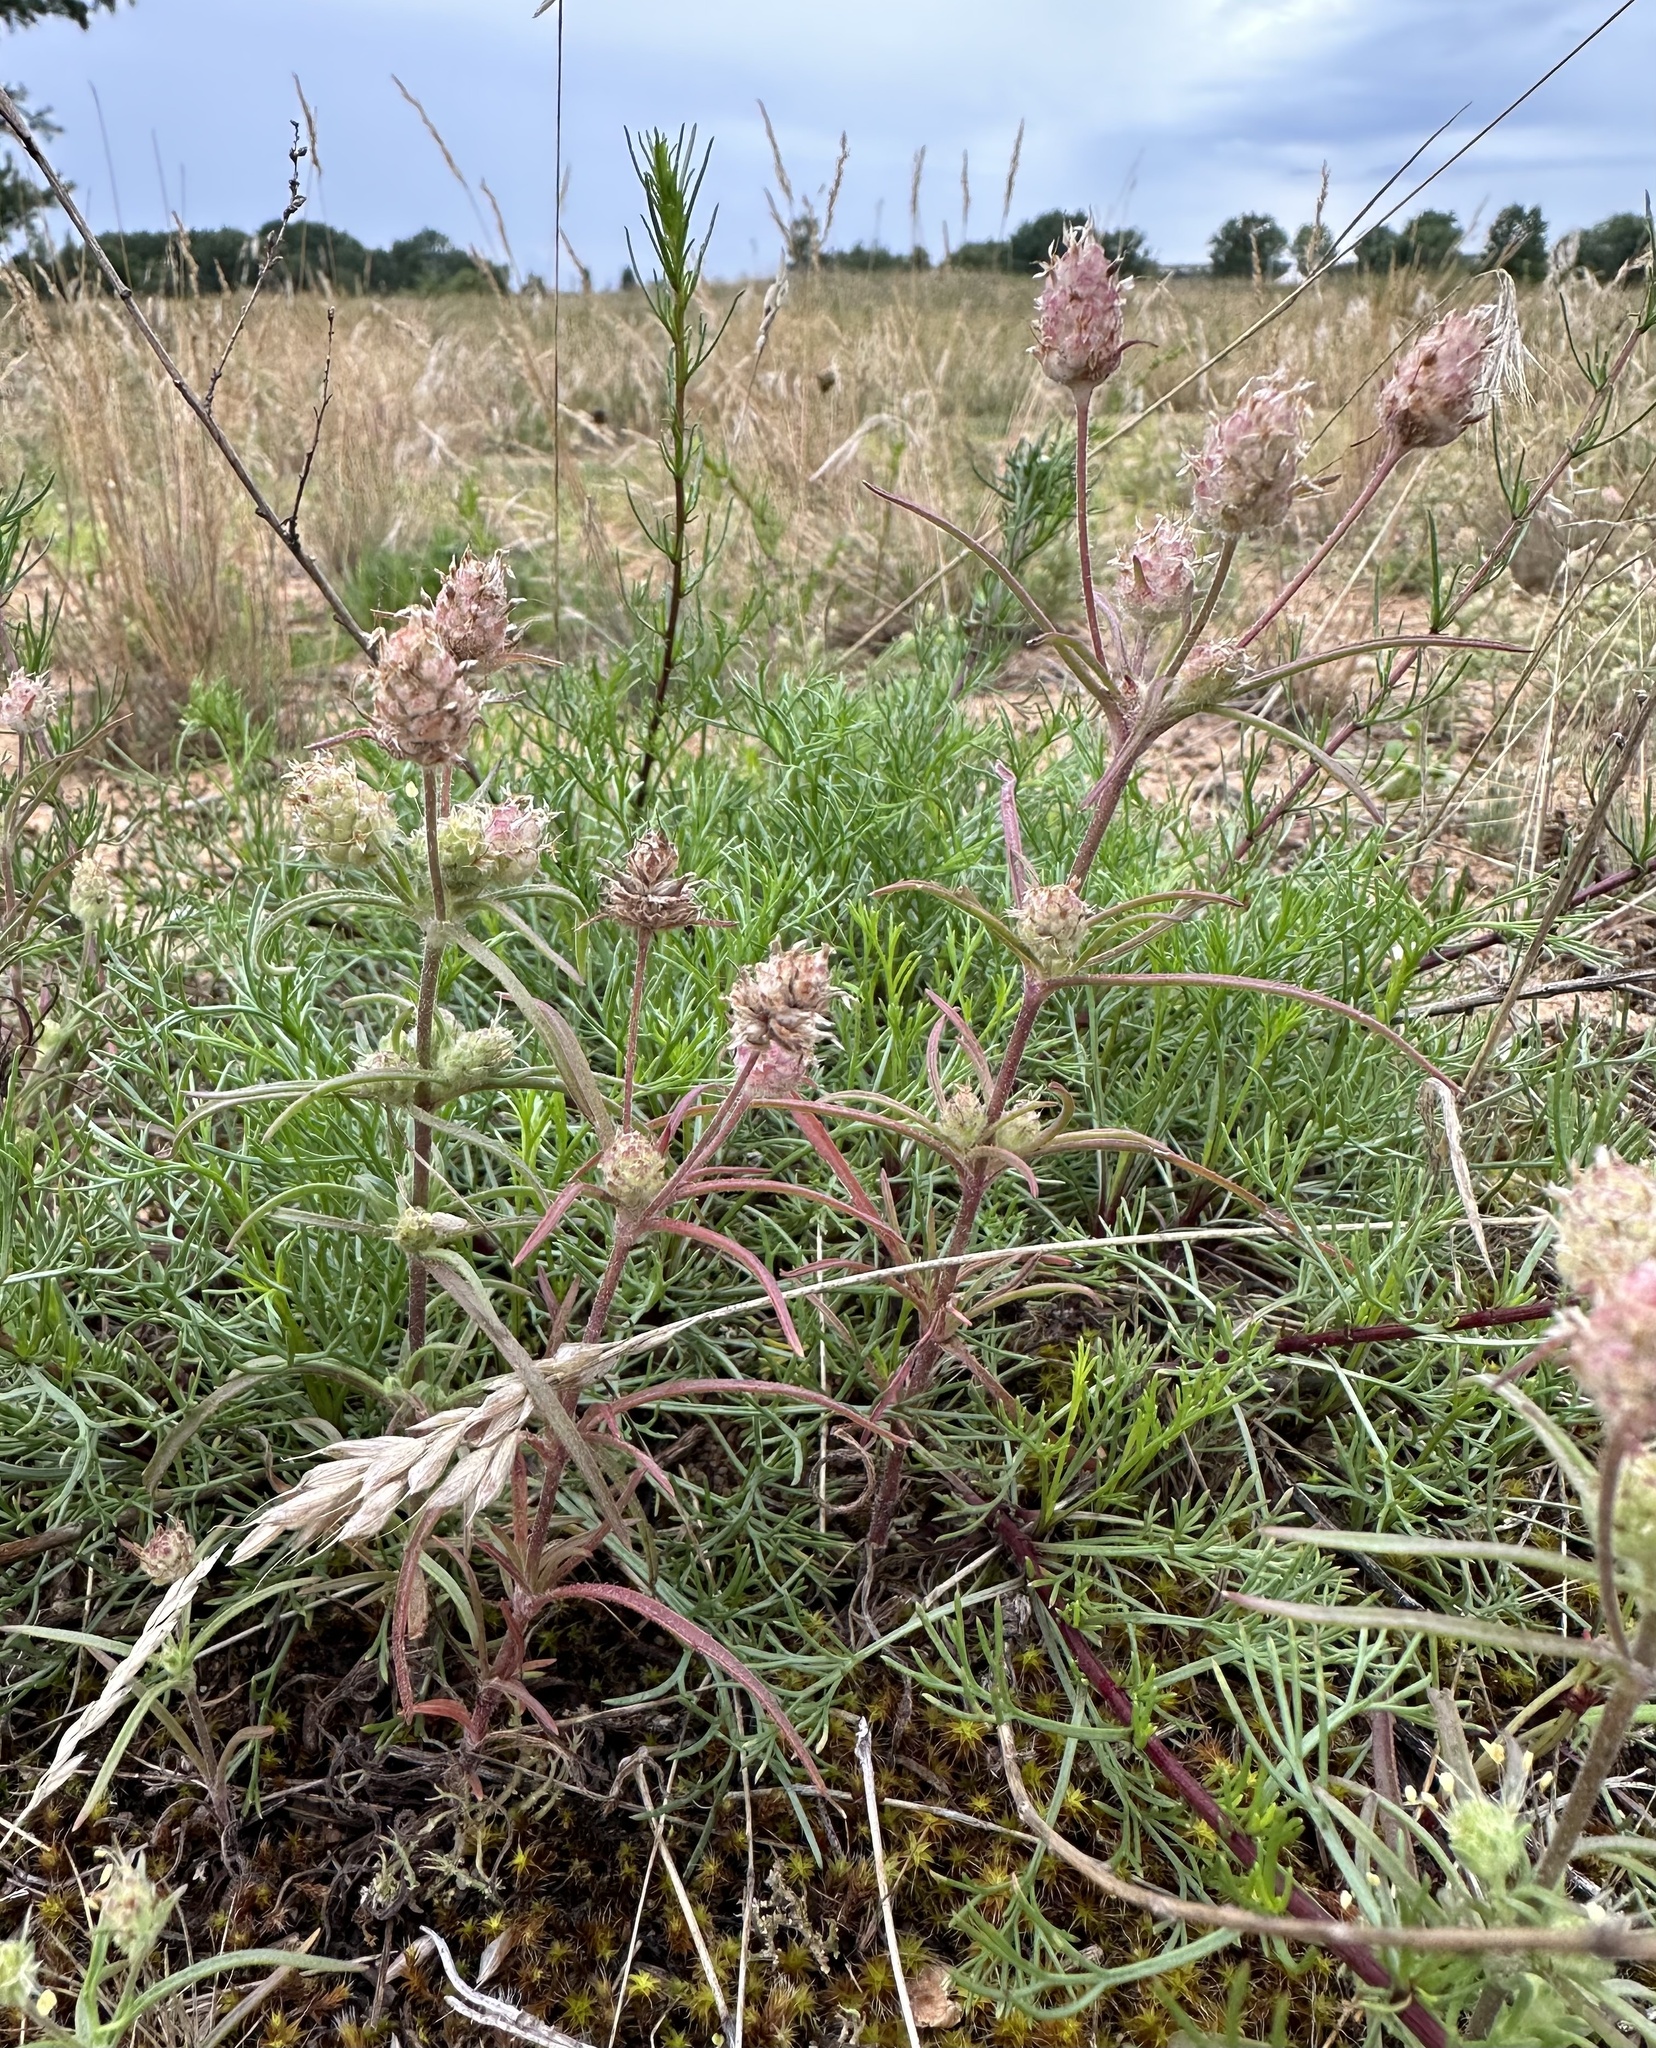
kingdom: Plantae
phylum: Tracheophyta
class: Magnoliopsida
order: Lamiales
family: Plantaginaceae
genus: Plantago
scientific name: Plantago arenaria
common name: Branched plantain
